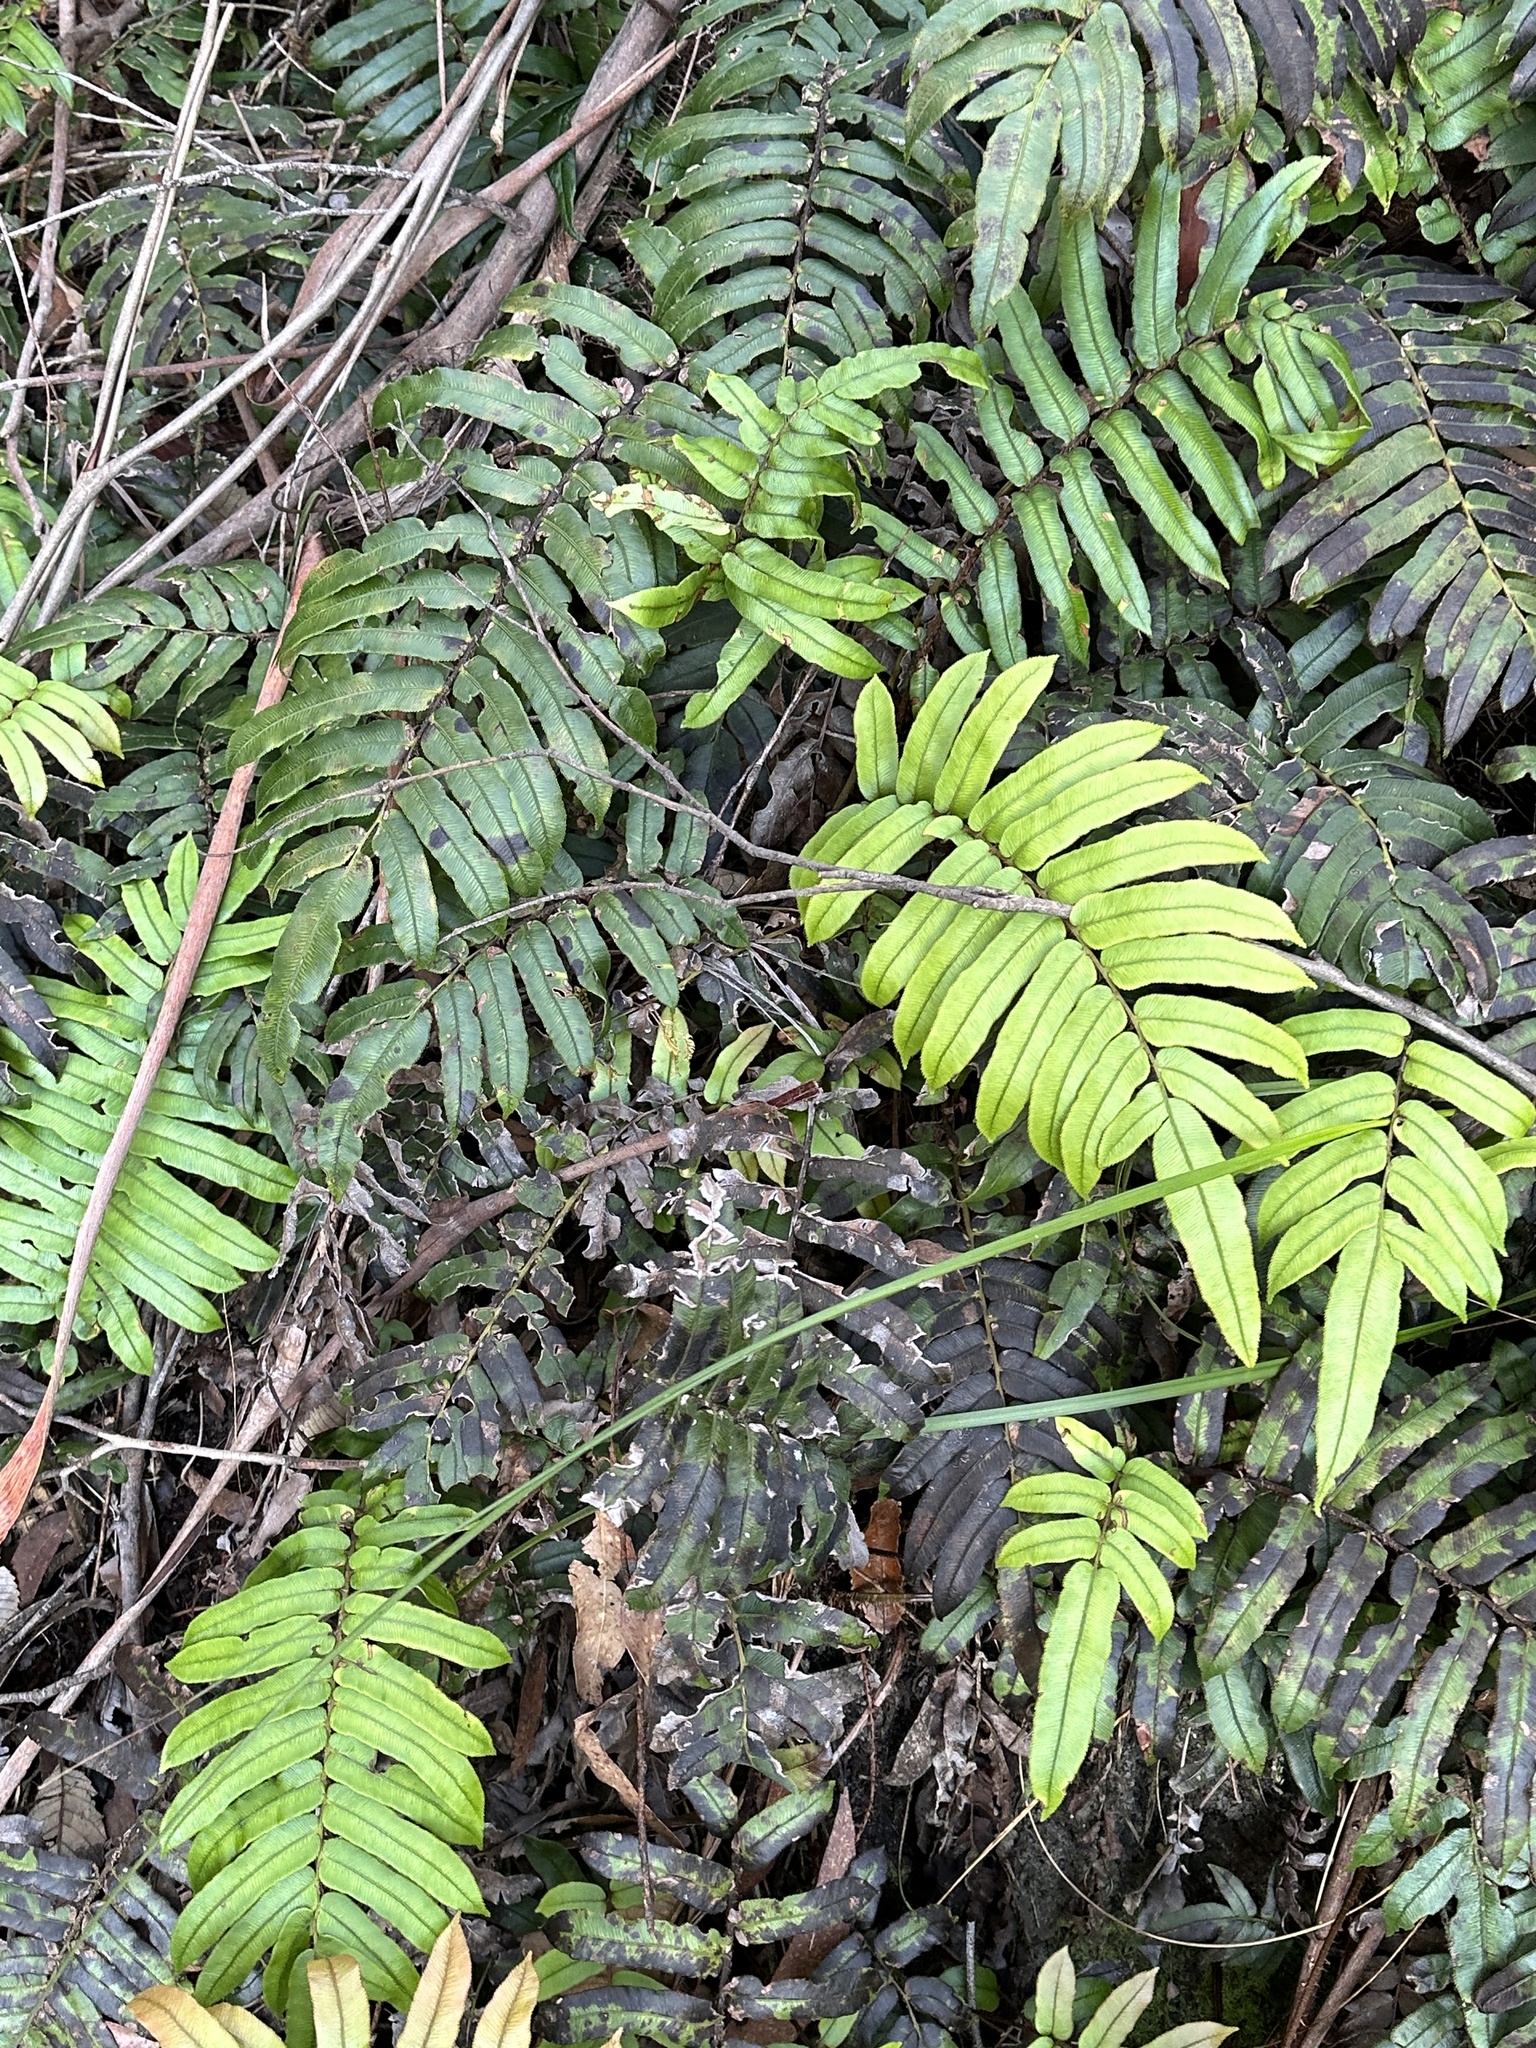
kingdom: Plantae
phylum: Tracheophyta
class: Polypodiopsida
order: Polypodiales
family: Blechnaceae
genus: Parablechnum
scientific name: Parablechnum wattsii
